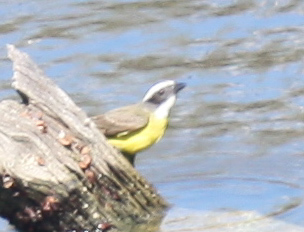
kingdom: Animalia
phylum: Chordata
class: Aves
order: Passeriformes
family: Tyrannidae
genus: Pitangus
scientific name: Pitangus sulphuratus
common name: Great kiskadee
